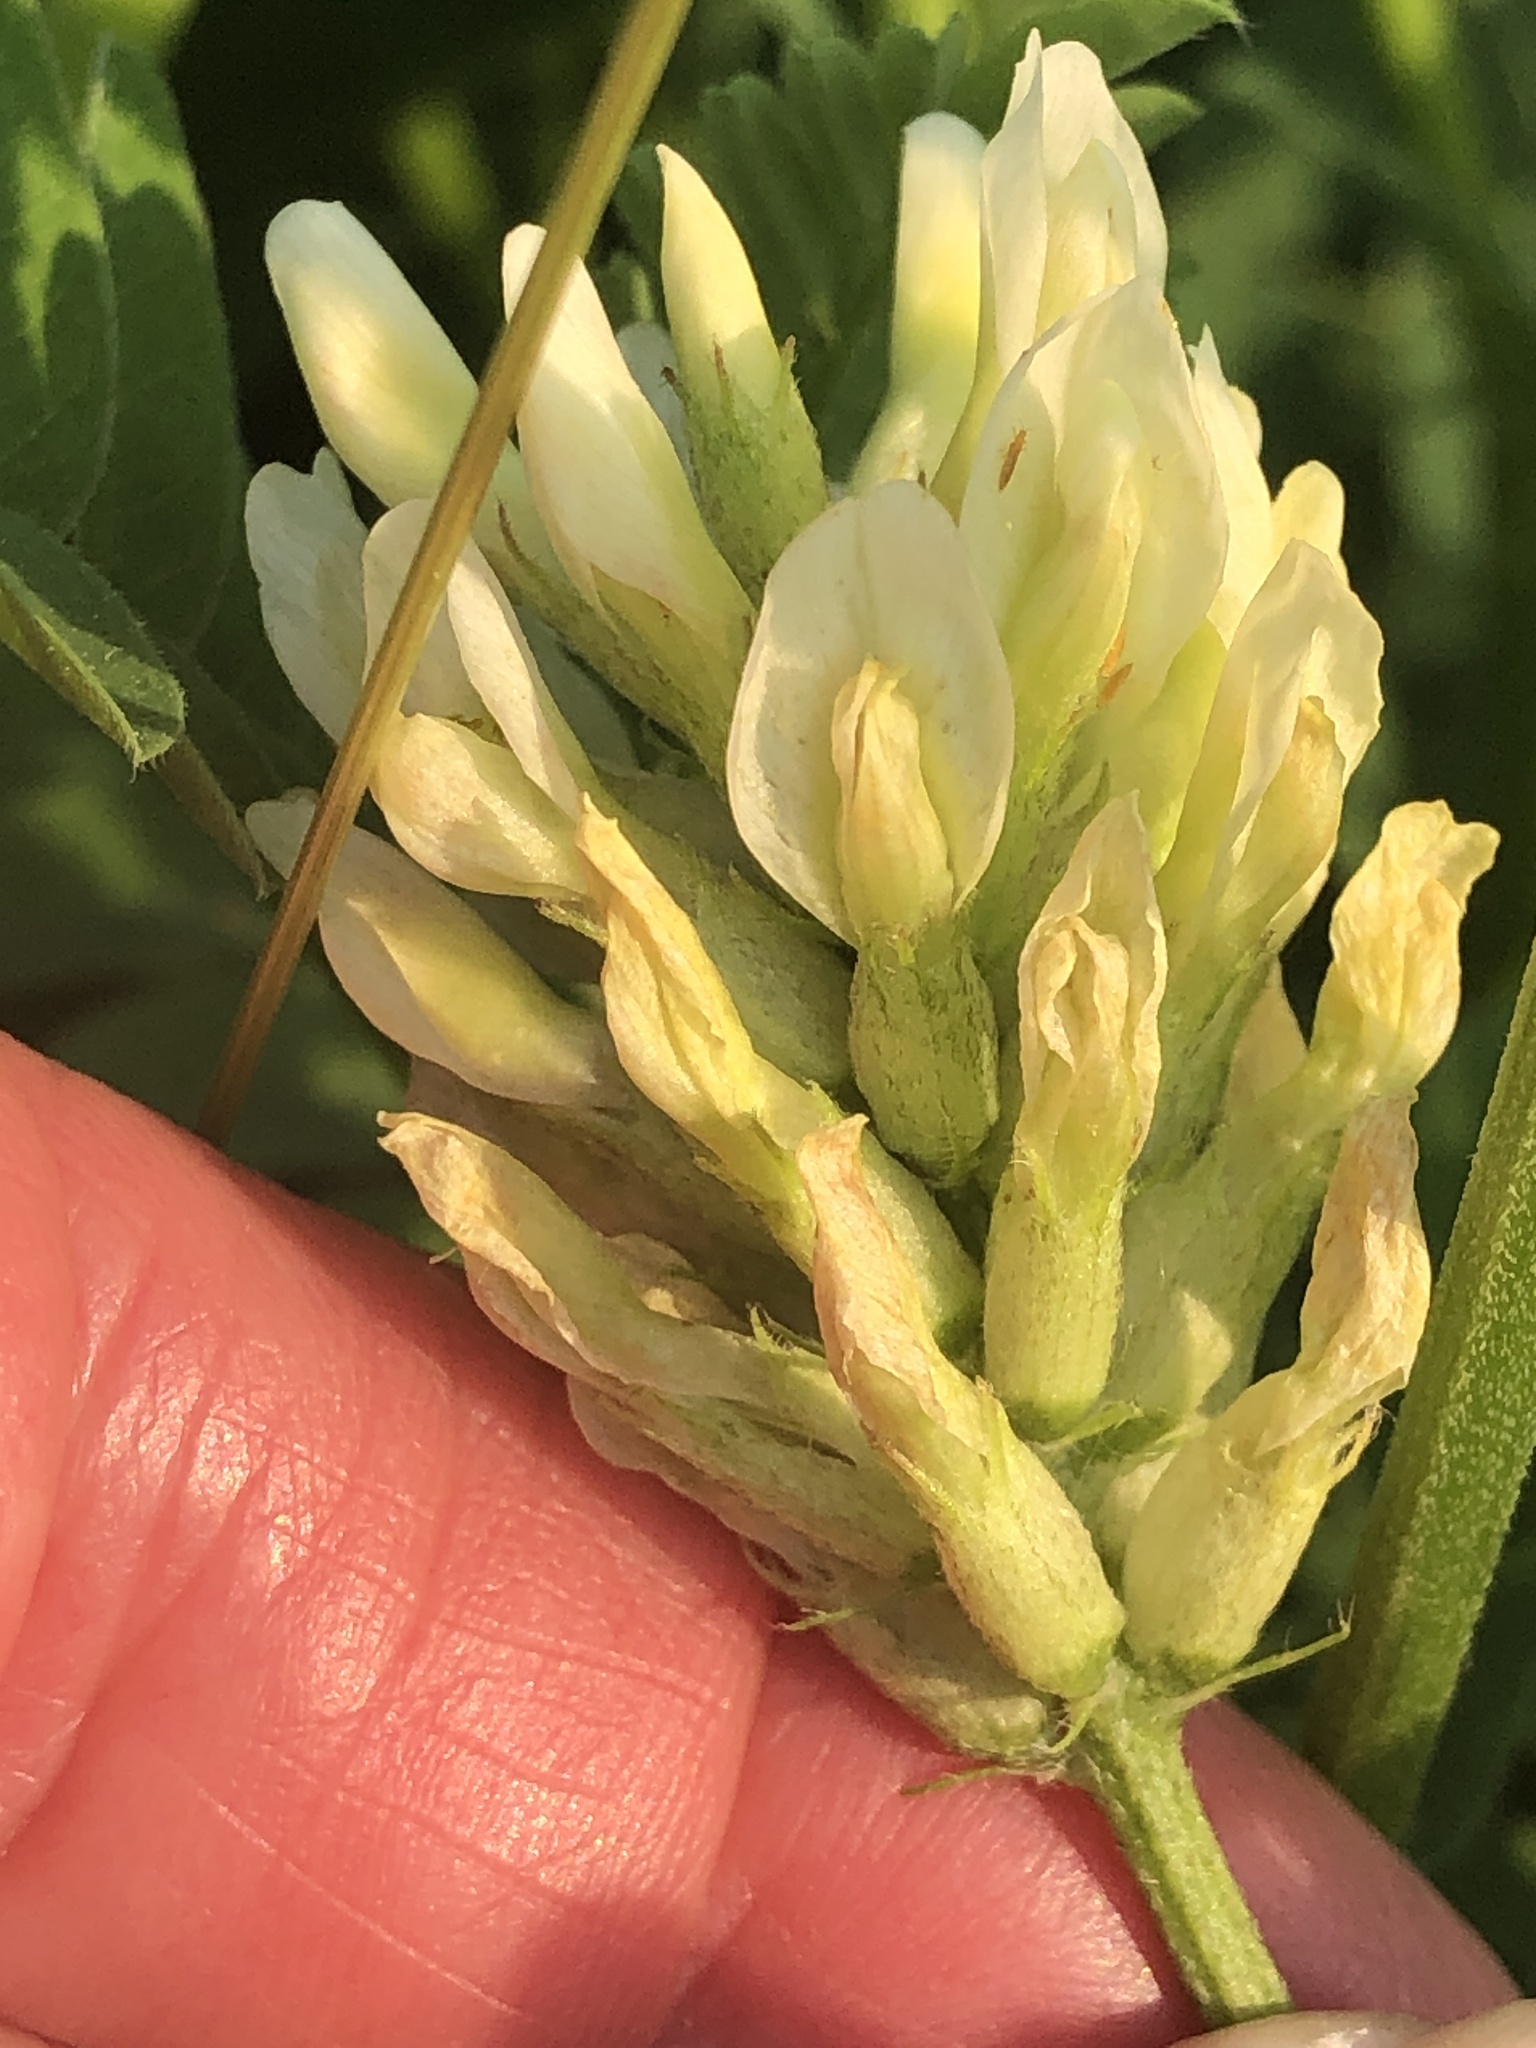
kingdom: Plantae
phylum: Tracheophyta
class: Magnoliopsida
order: Fabales
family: Fabaceae
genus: Astragalus
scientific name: Astragalus cicer
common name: Chick-pea milk-vetch
